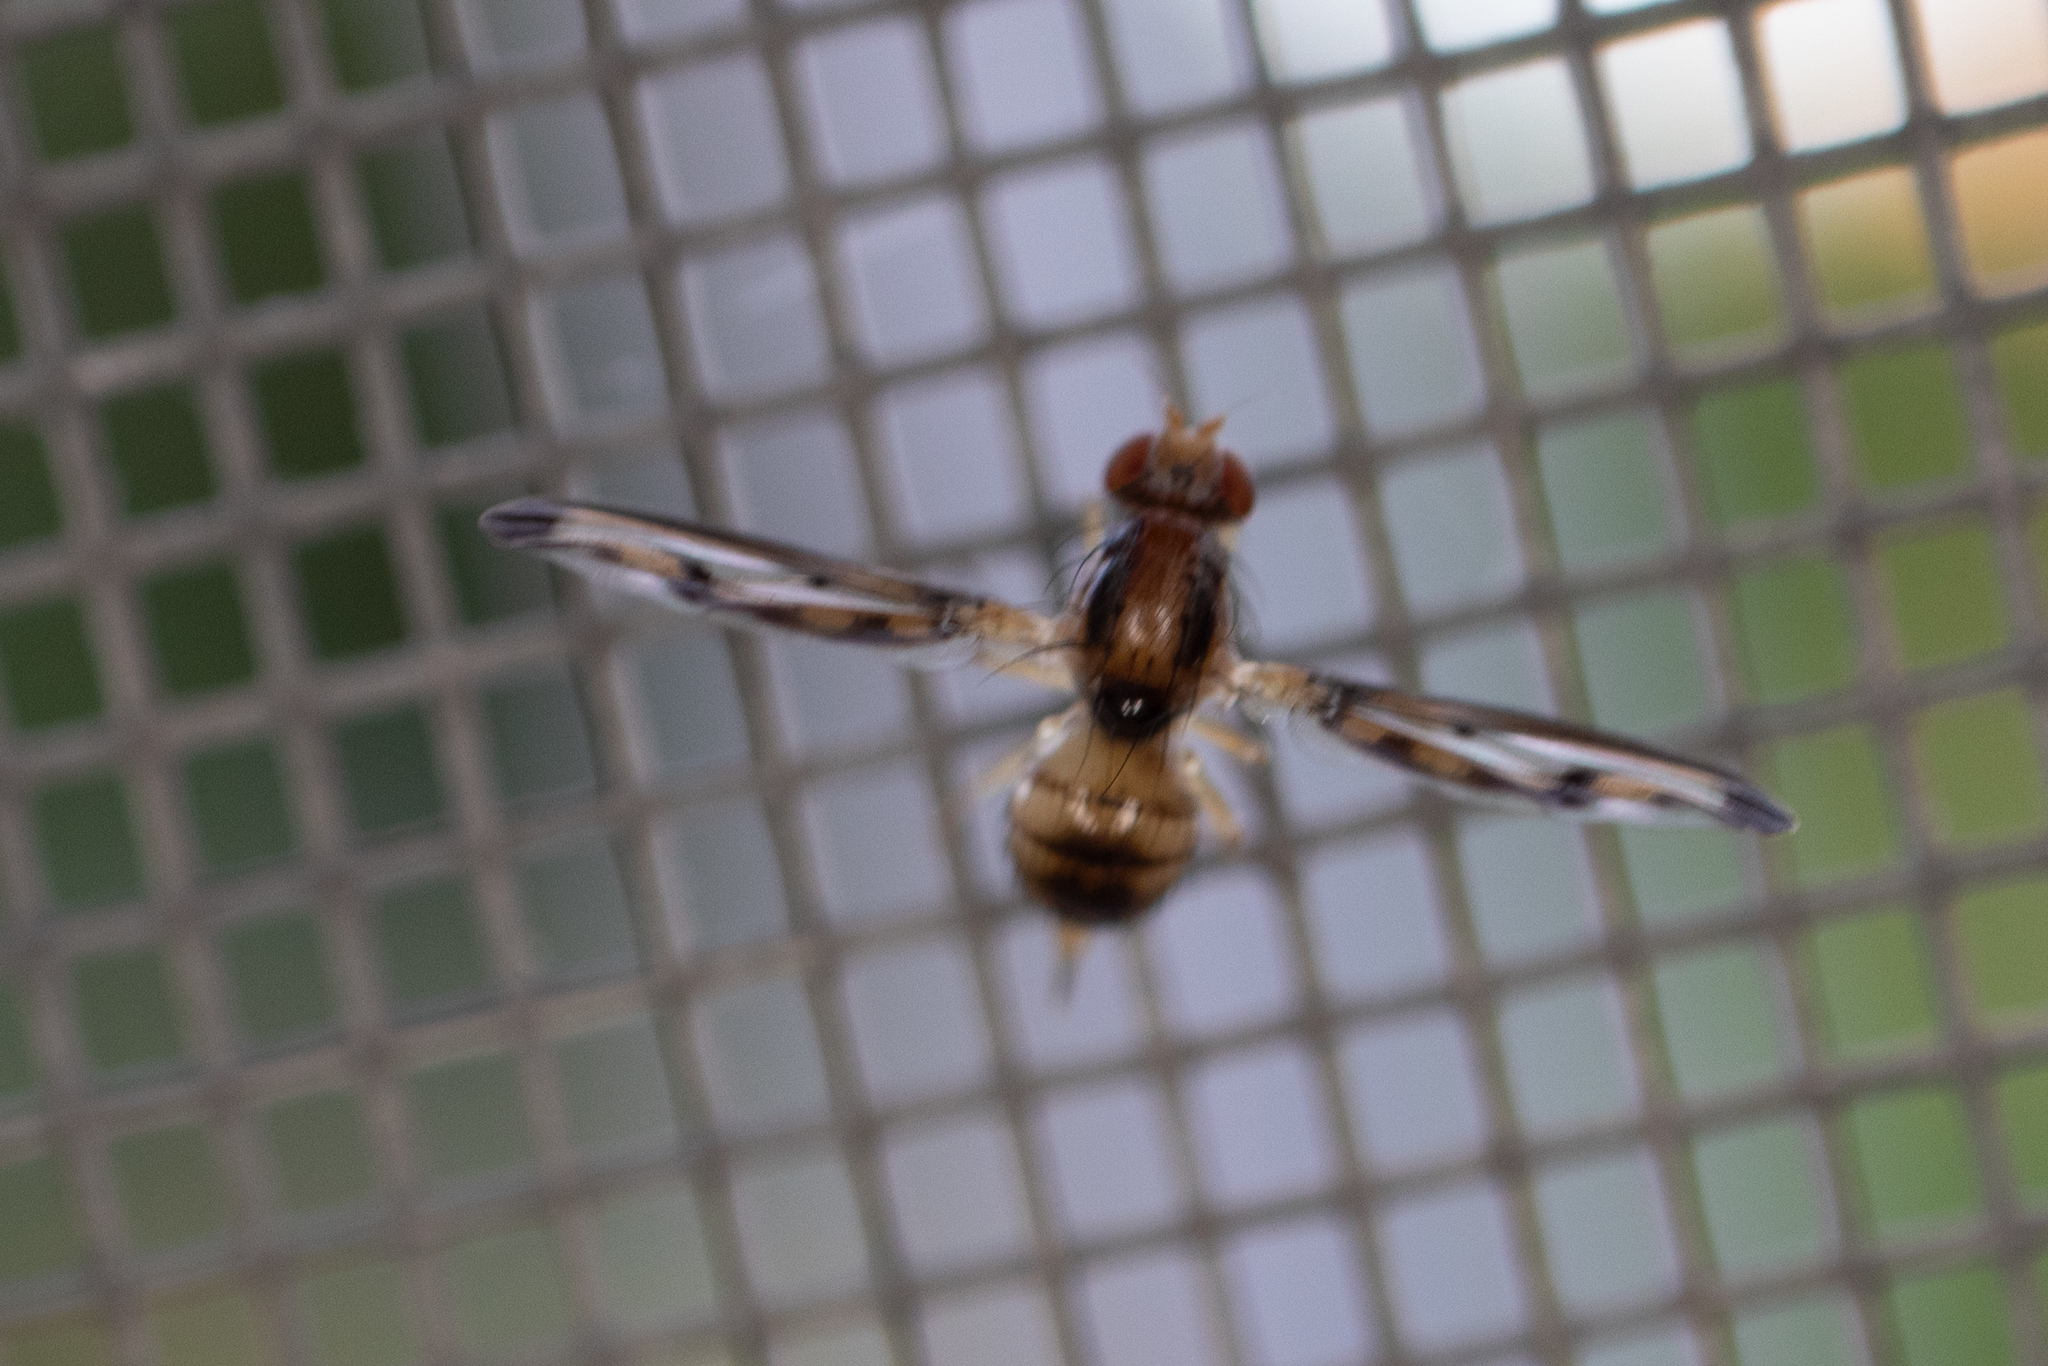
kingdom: Animalia
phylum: Arthropoda
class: Insecta
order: Diptera
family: Pallopteridae
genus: Toxonevra
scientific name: Toxonevra muliebris
